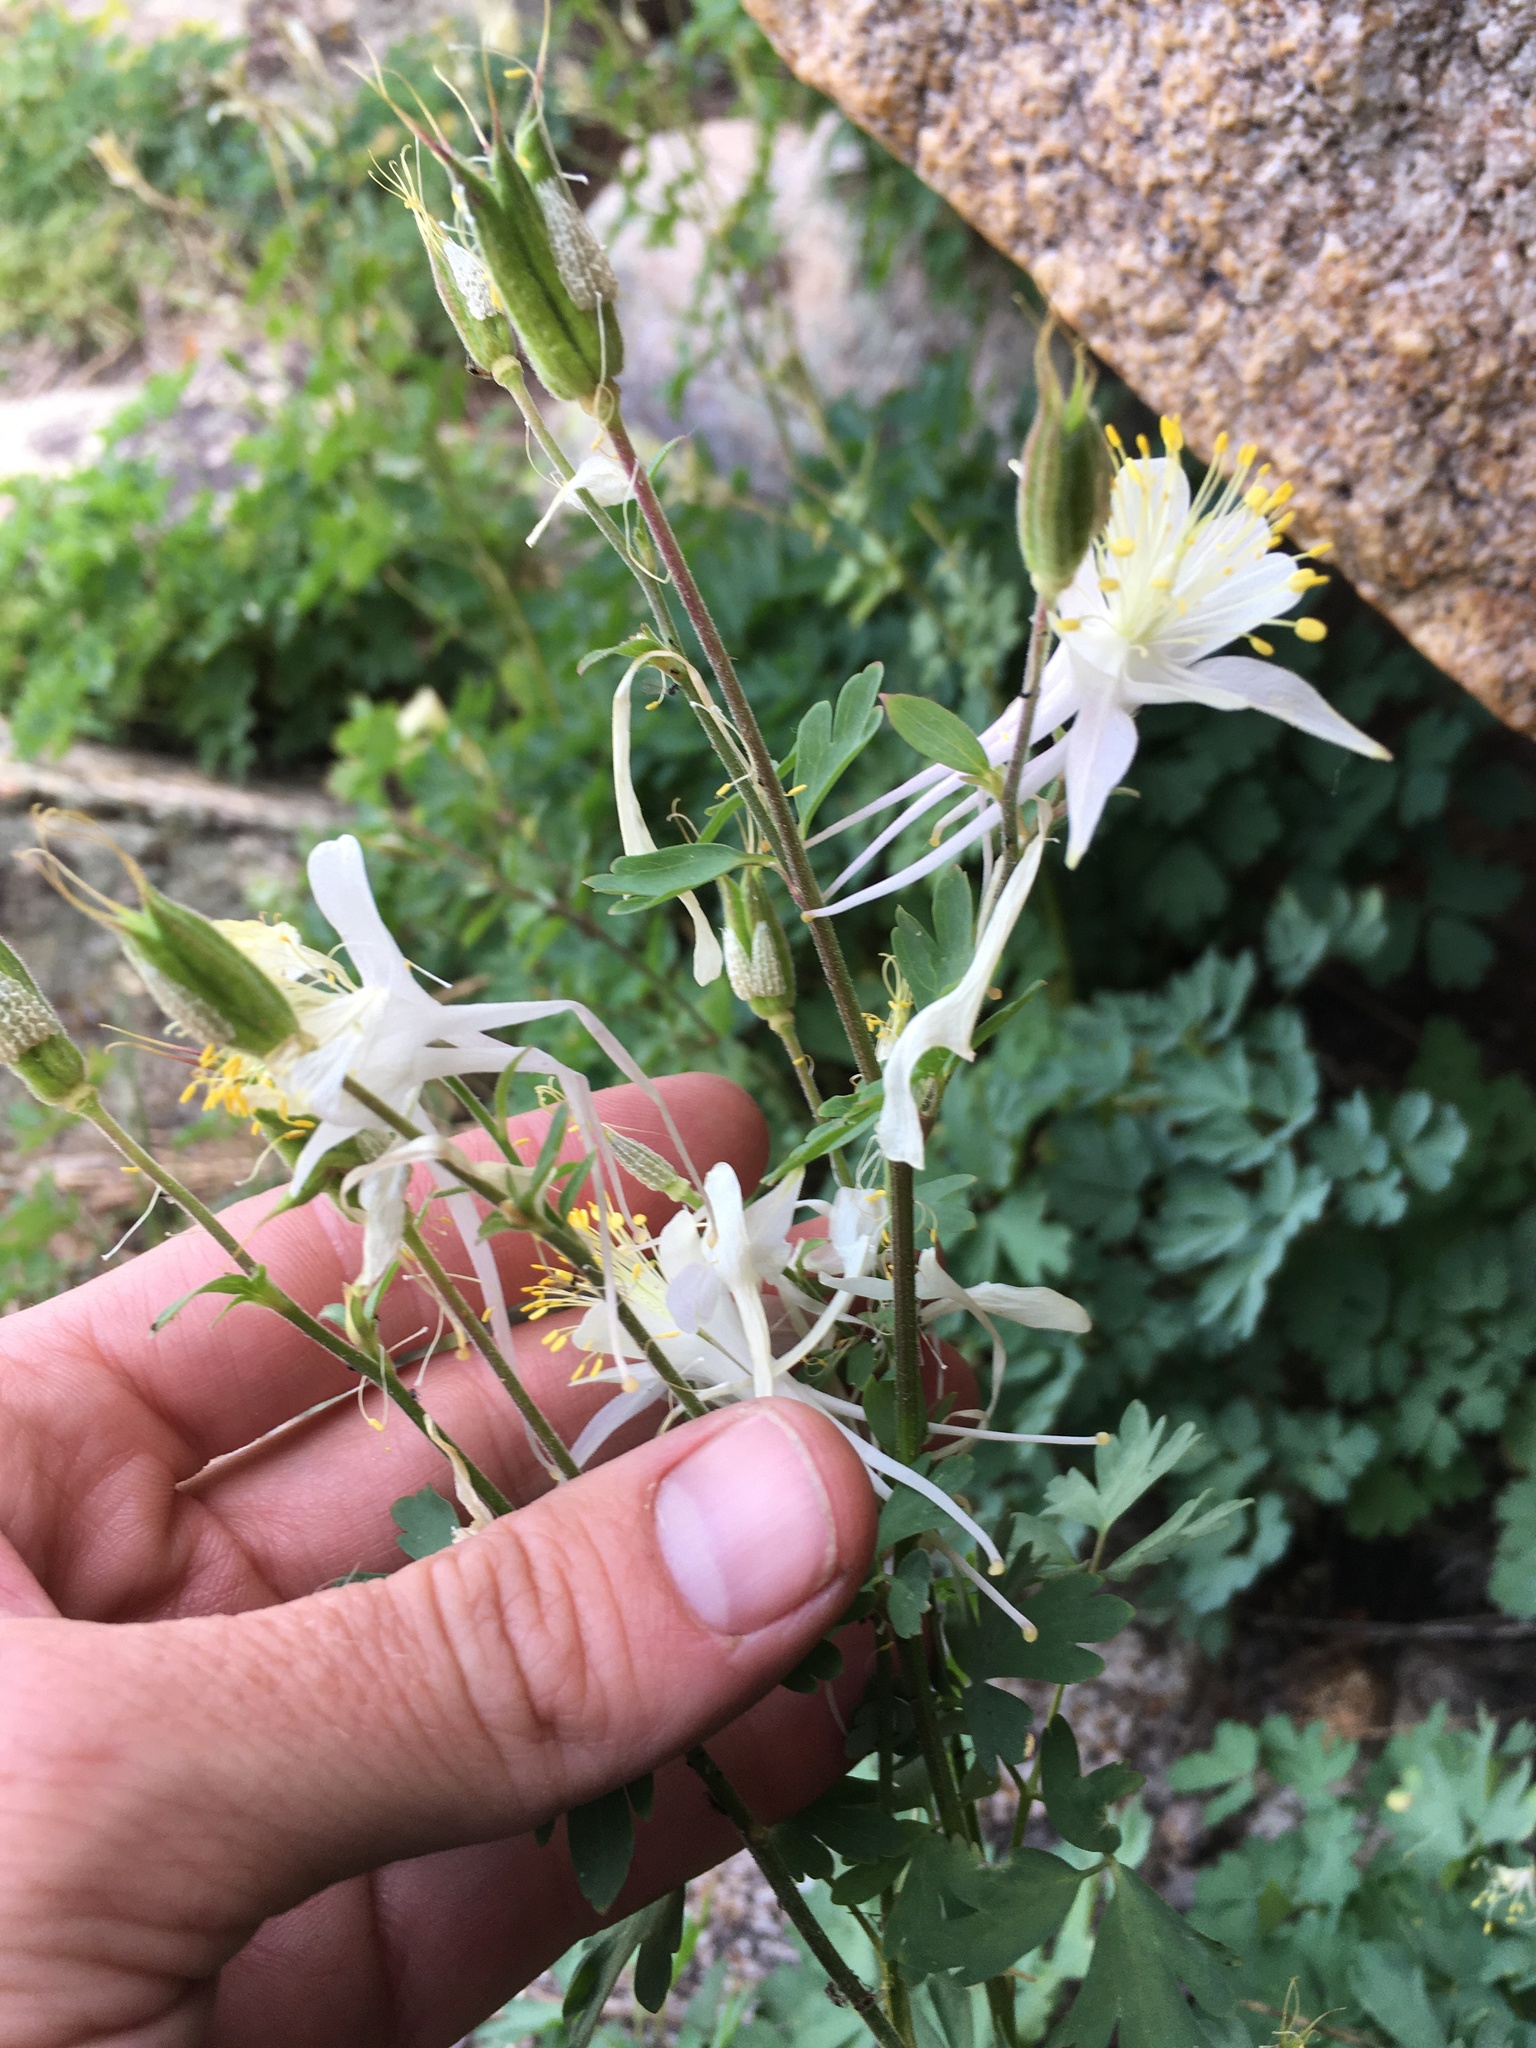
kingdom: Plantae
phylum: Tracheophyta
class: Magnoliopsida
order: Ranunculales
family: Ranunculaceae
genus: Aquilegia
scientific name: Aquilegia pubescens
